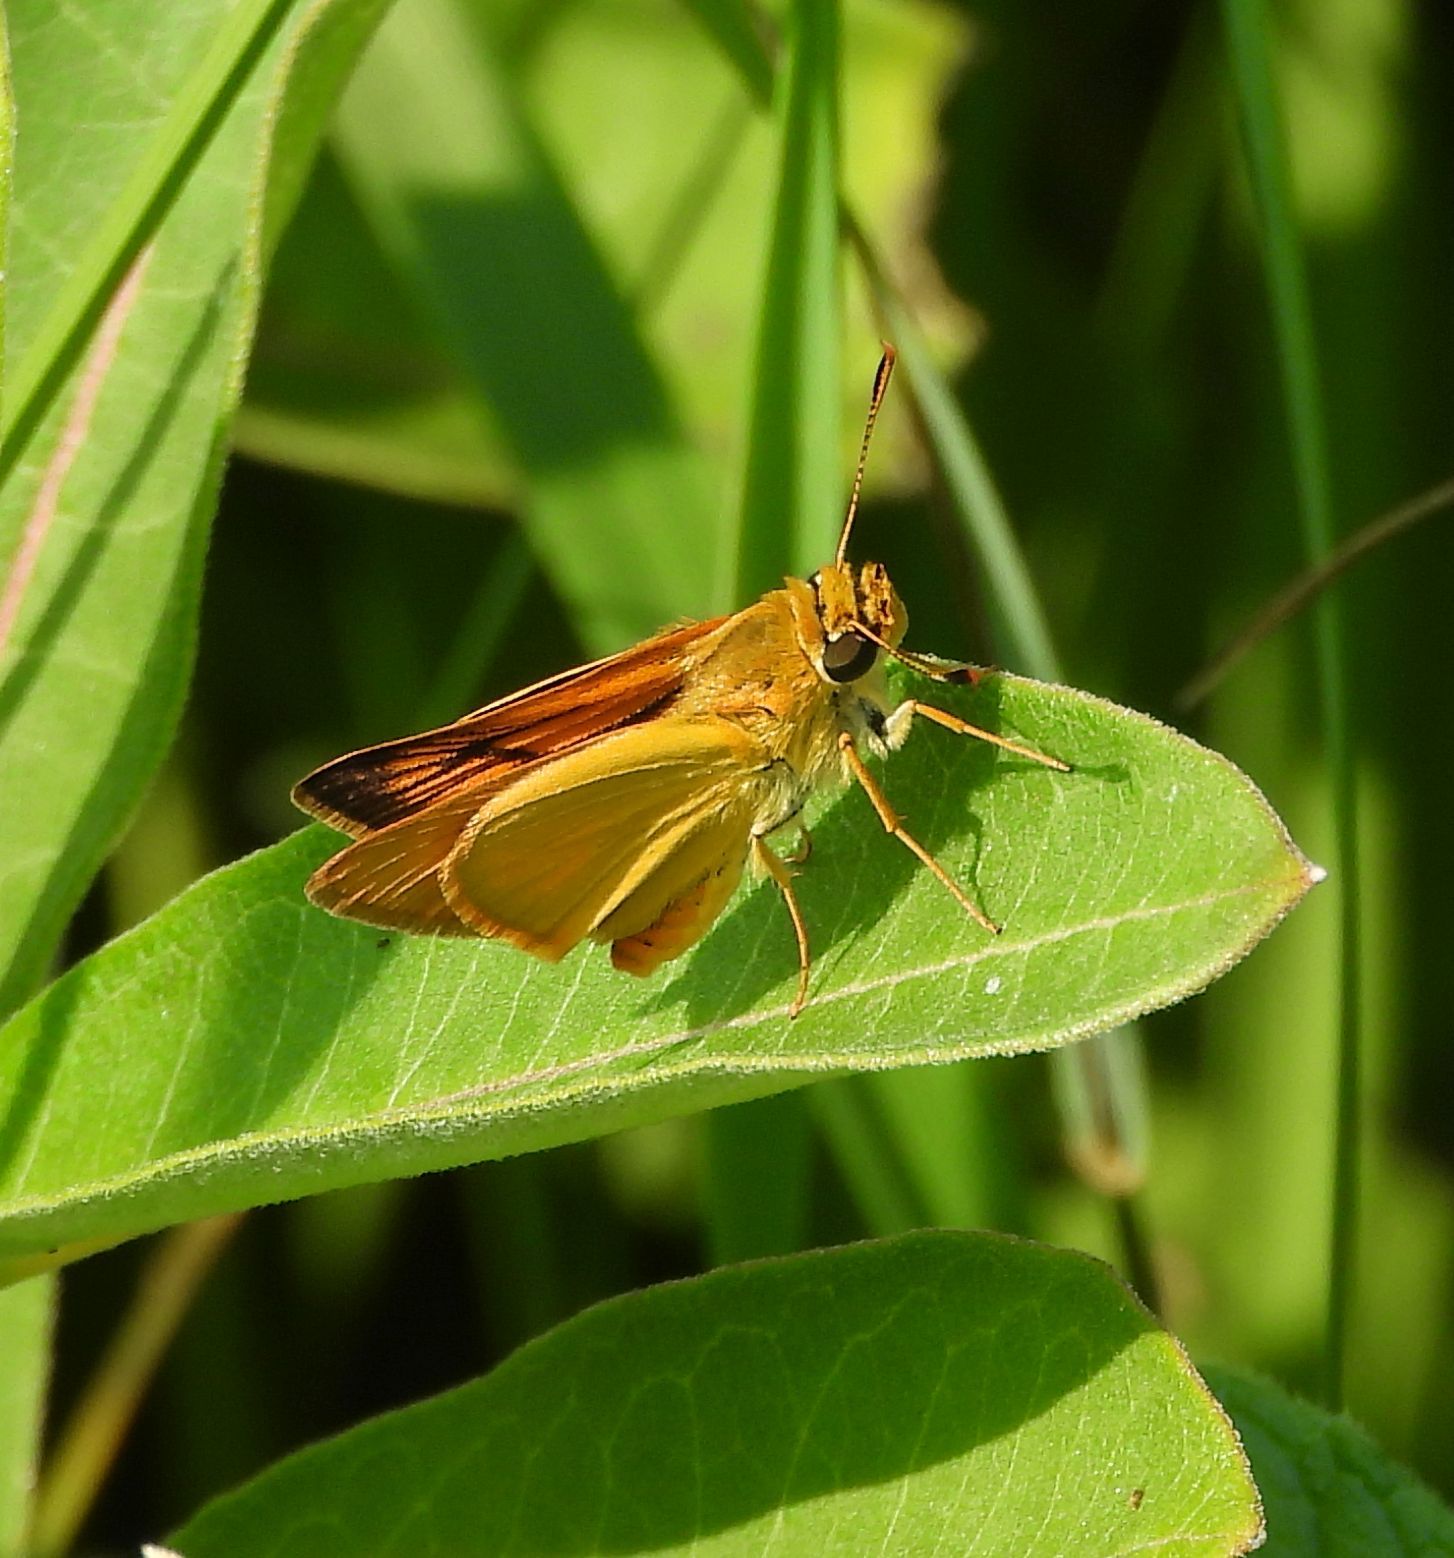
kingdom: Animalia
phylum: Arthropoda
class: Insecta
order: Lepidoptera
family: Hesperiidae
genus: Atrytone
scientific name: Atrytone delaware
